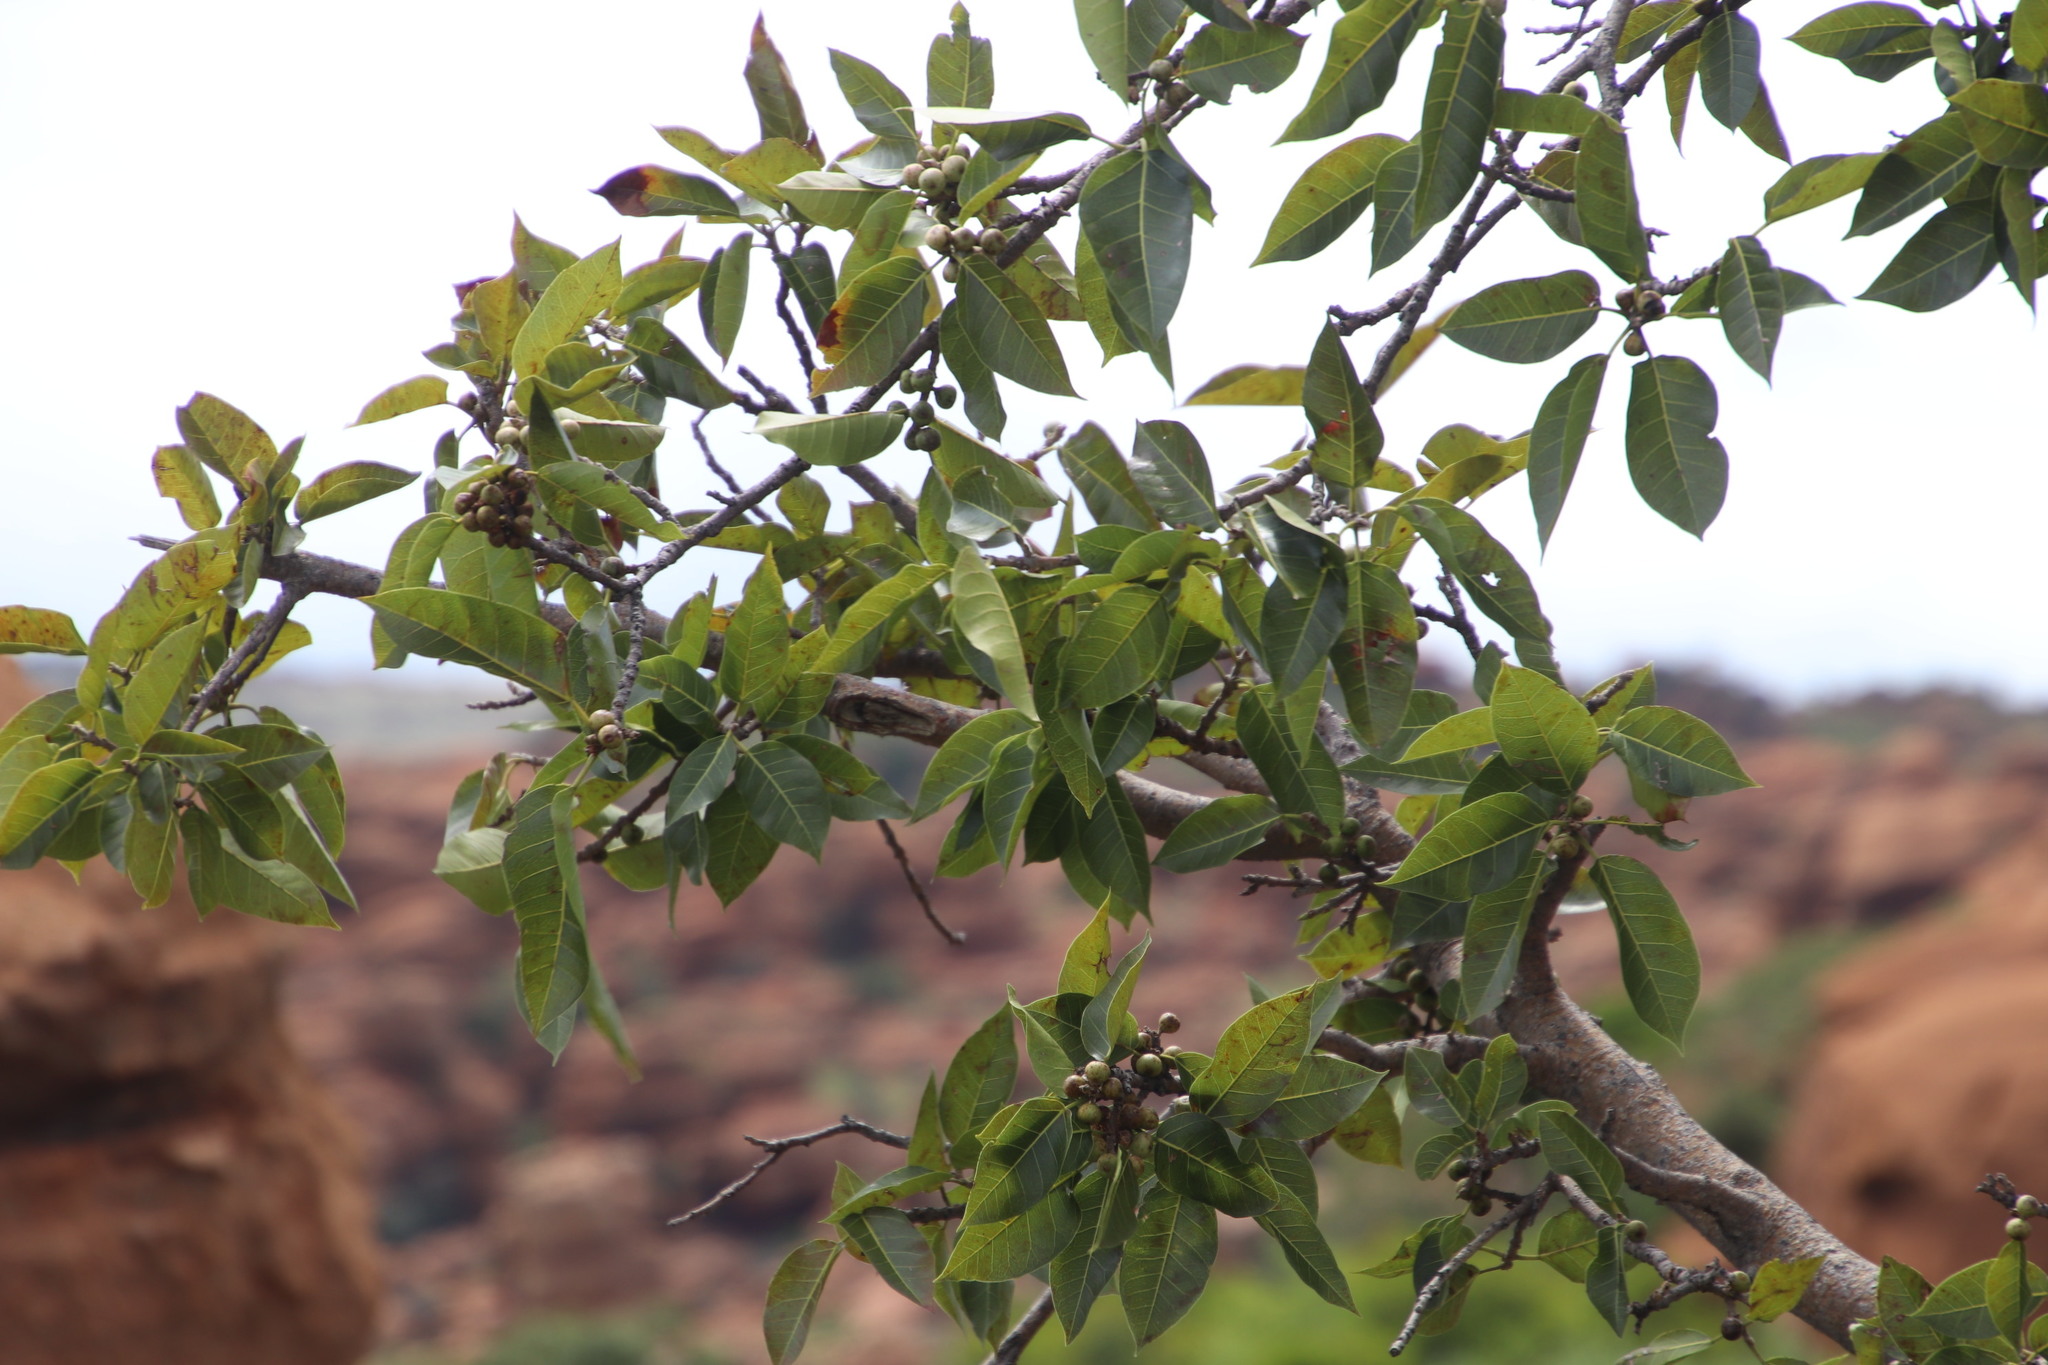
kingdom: Plantae
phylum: Tracheophyta
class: Magnoliopsida
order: Rosales
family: Moraceae
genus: Ficus
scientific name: Ficus ingens
